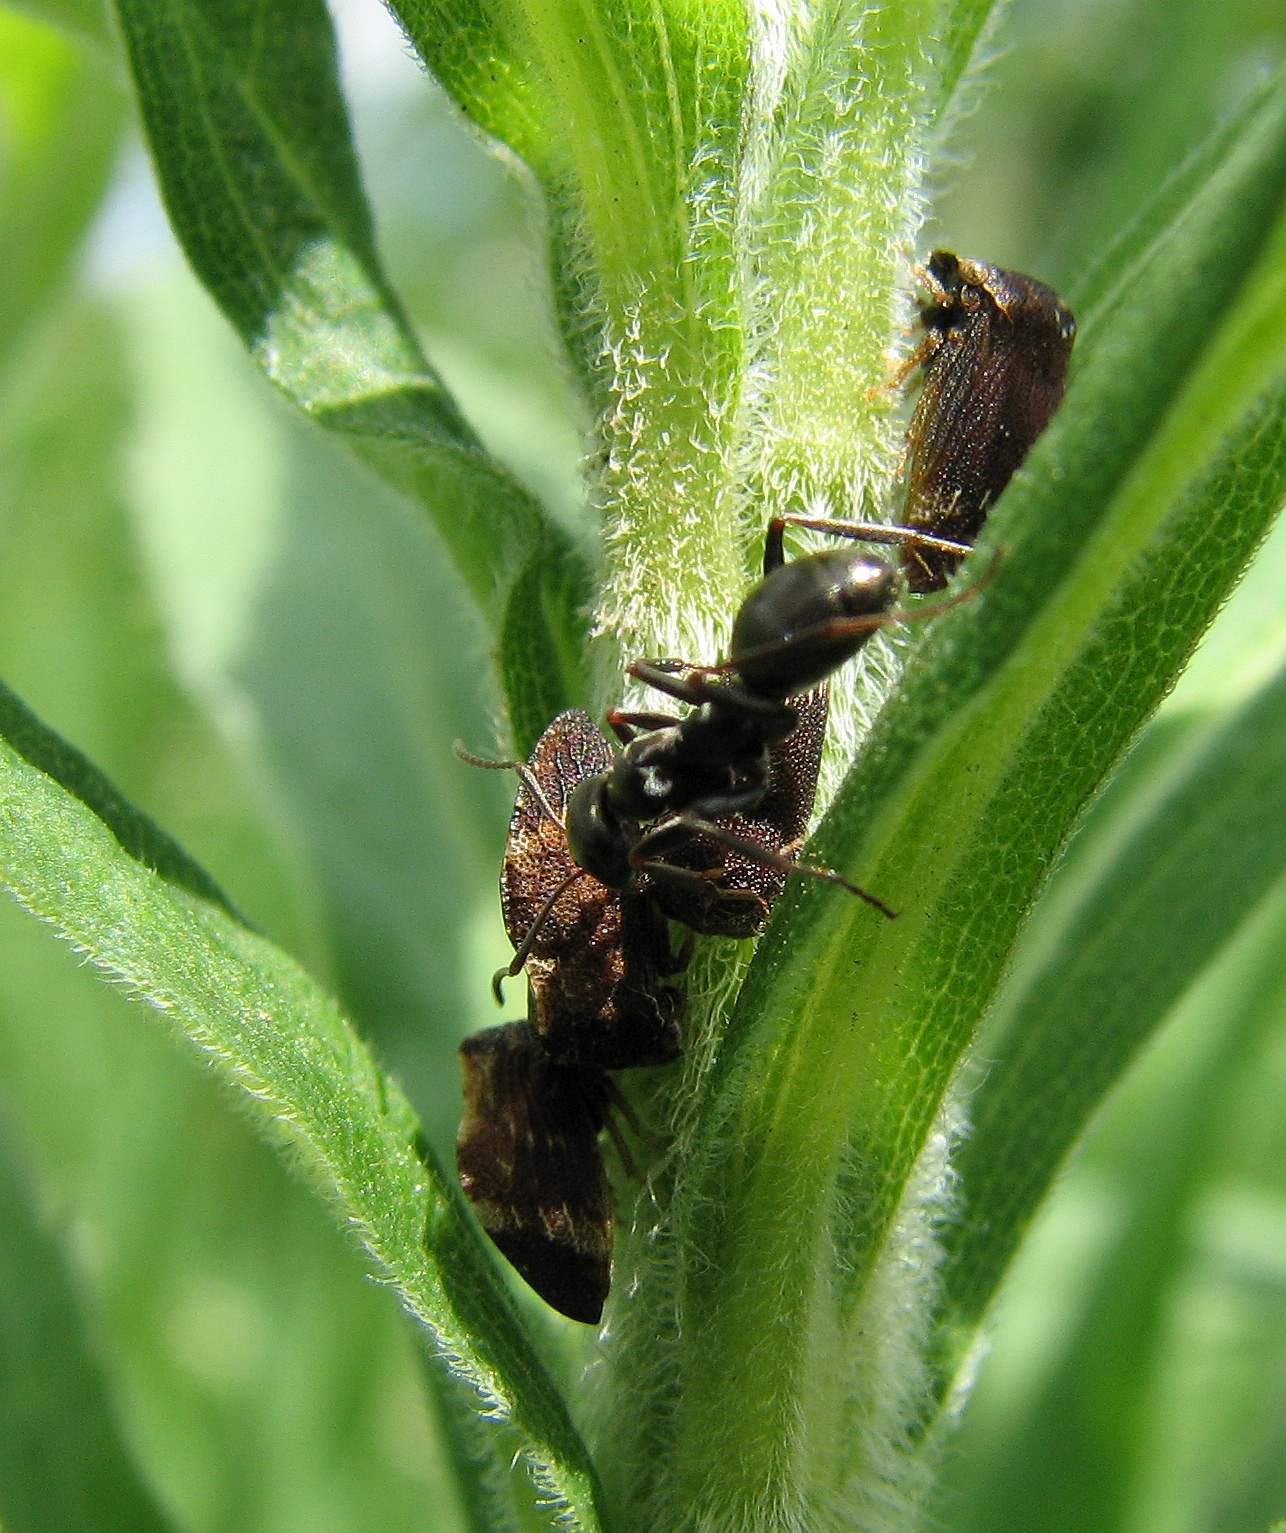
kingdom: Animalia
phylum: Arthropoda
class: Insecta
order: Hemiptera
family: Membracidae
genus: Publilia
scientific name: Publilia concava
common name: Aster treehopper
